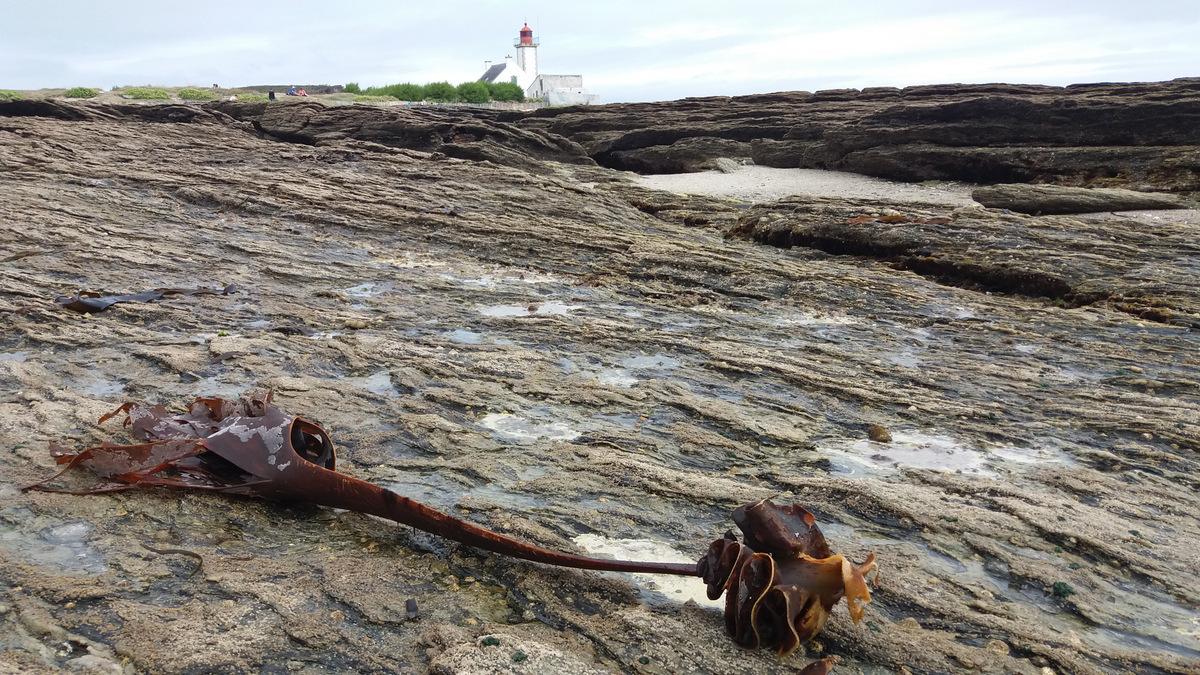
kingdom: Chromista
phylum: Ochrophyta
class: Phaeophyceae
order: Tilopteridales
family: Phyllariaceae
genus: Saccorhiza
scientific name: Saccorhiza polyschides
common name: Furbelows
